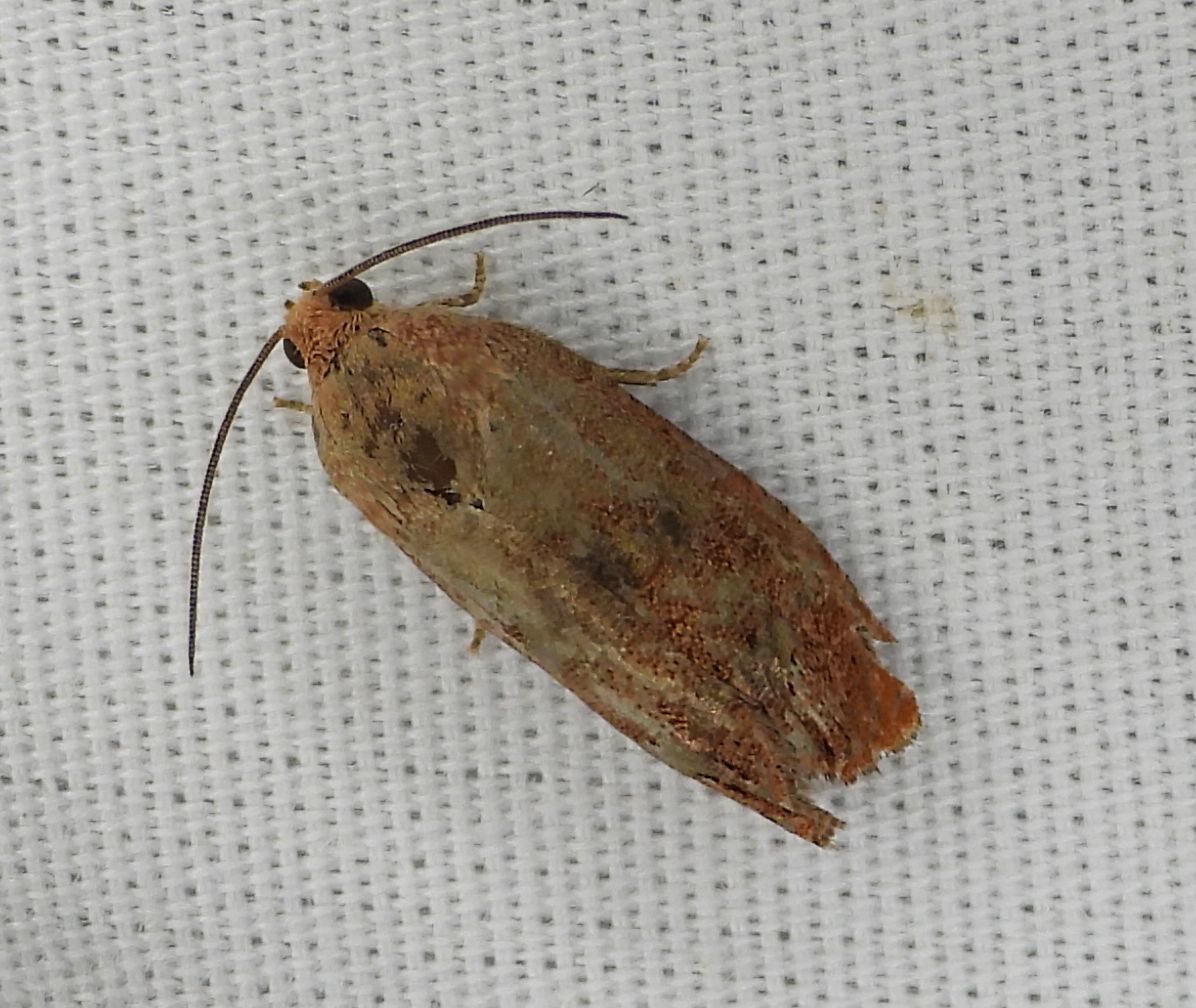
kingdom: Animalia
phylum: Arthropoda
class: Insecta
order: Lepidoptera
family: Tortricidae
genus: Cydia
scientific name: Cydia latiferreana
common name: Filbertworm moth
